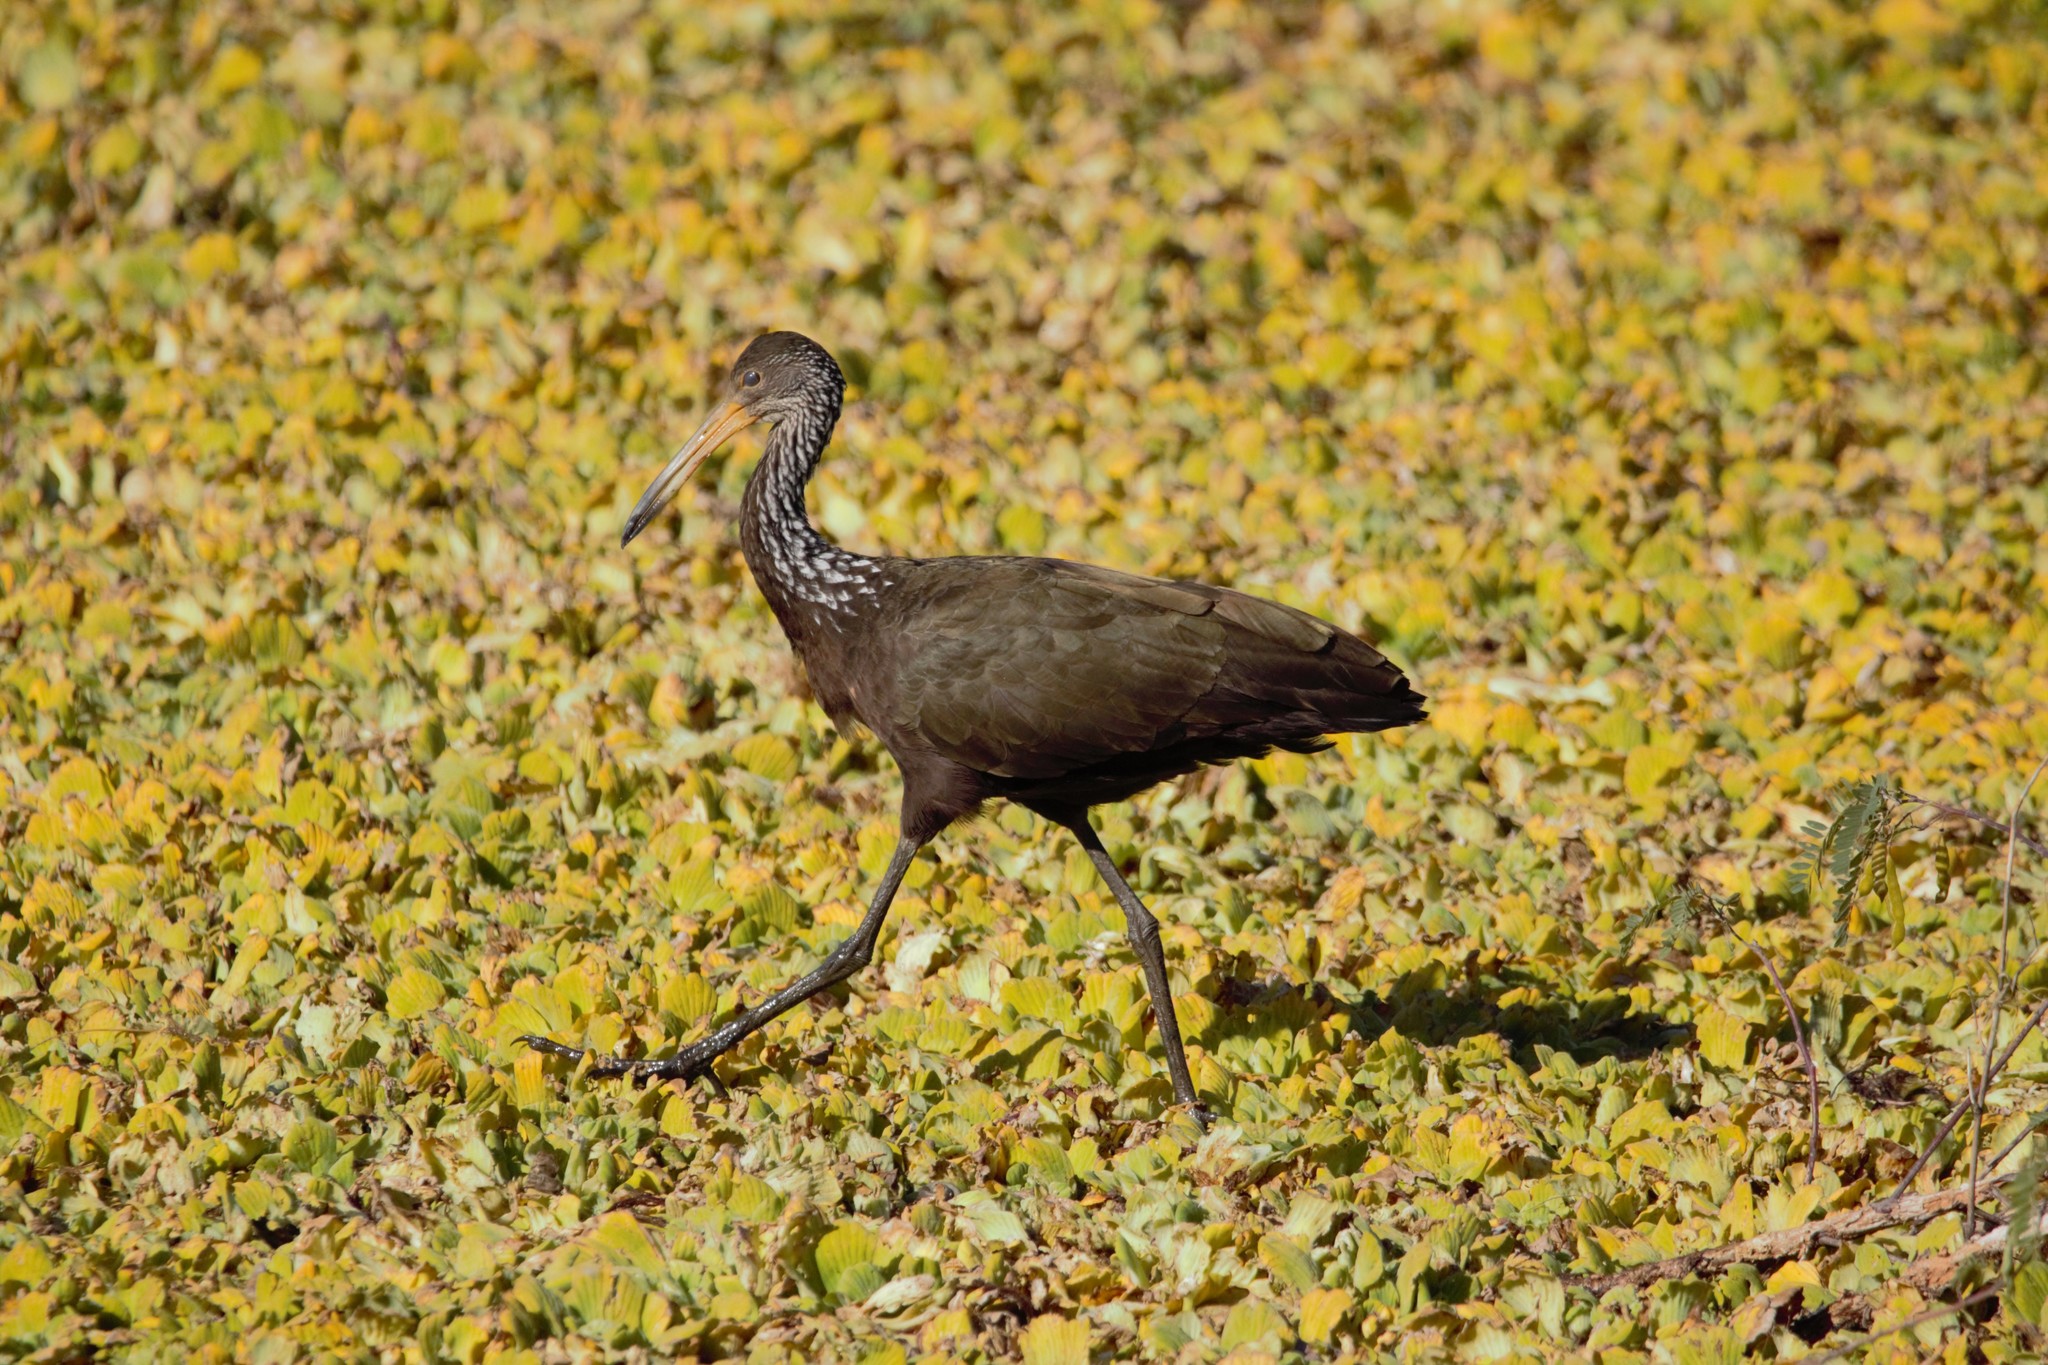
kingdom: Animalia
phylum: Chordata
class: Aves
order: Gruiformes
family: Aramidae
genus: Aramus
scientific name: Aramus guarauna
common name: Limpkin
